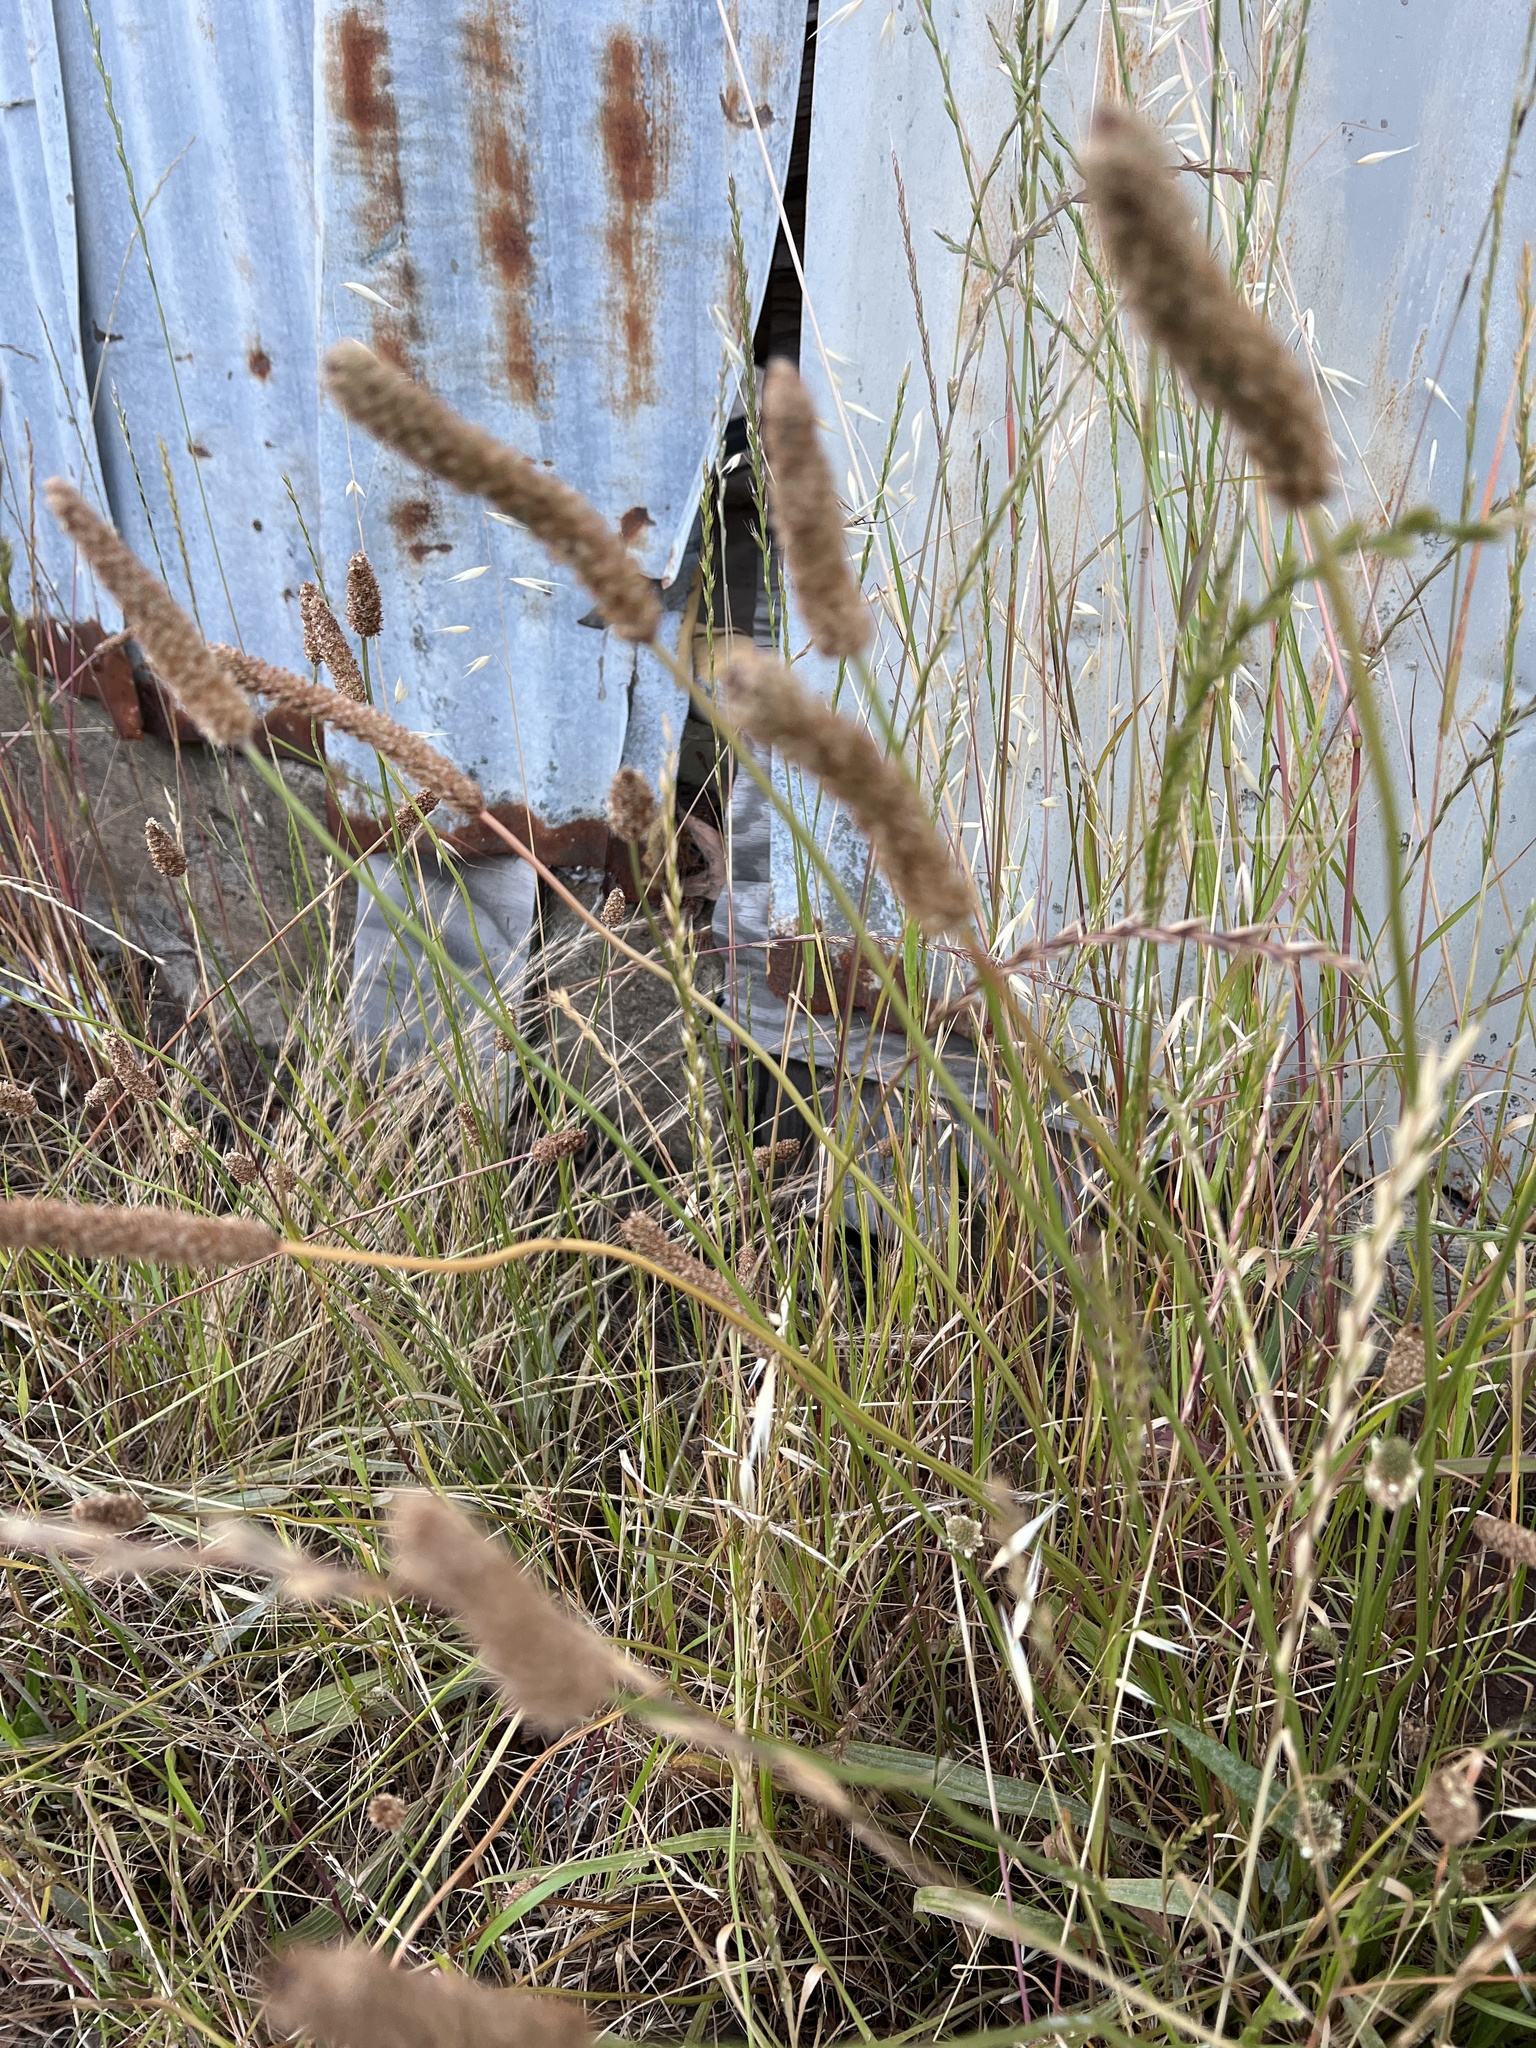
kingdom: Plantae
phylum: Tracheophyta
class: Magnoliopsida
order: Lamiales
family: Plantaginaceae
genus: Plantago
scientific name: Plantago lanceolata
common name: Ribwort plantain
